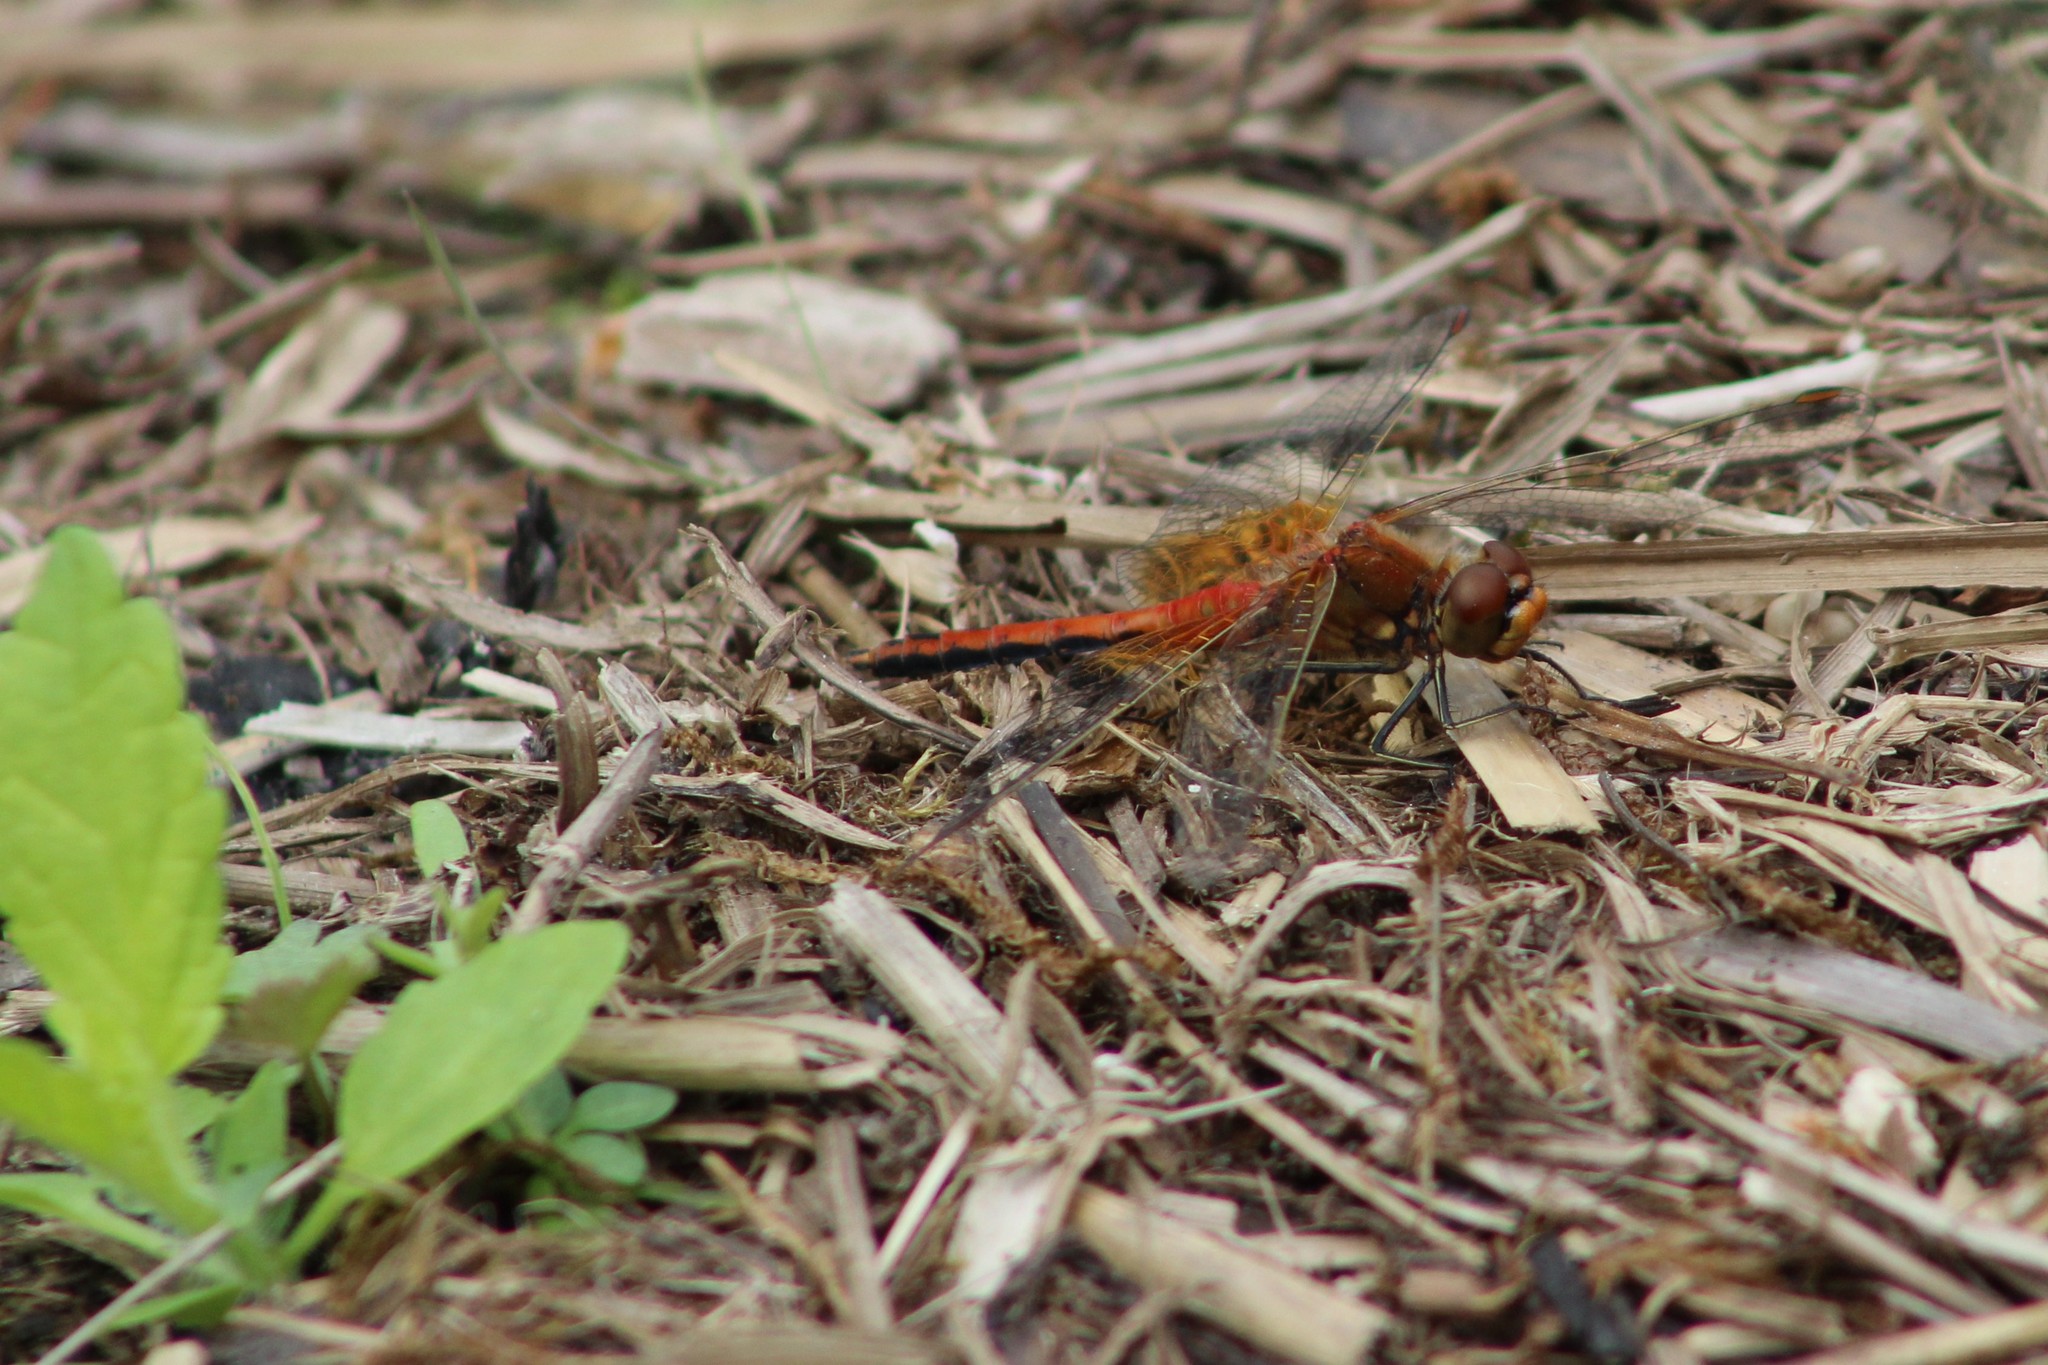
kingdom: Animalia
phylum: Arthropoda
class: Insecta
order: Odonata
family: Libellulidae
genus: Sympetrum
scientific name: Sympetrum flaveolum
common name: Yellow-winged darter
